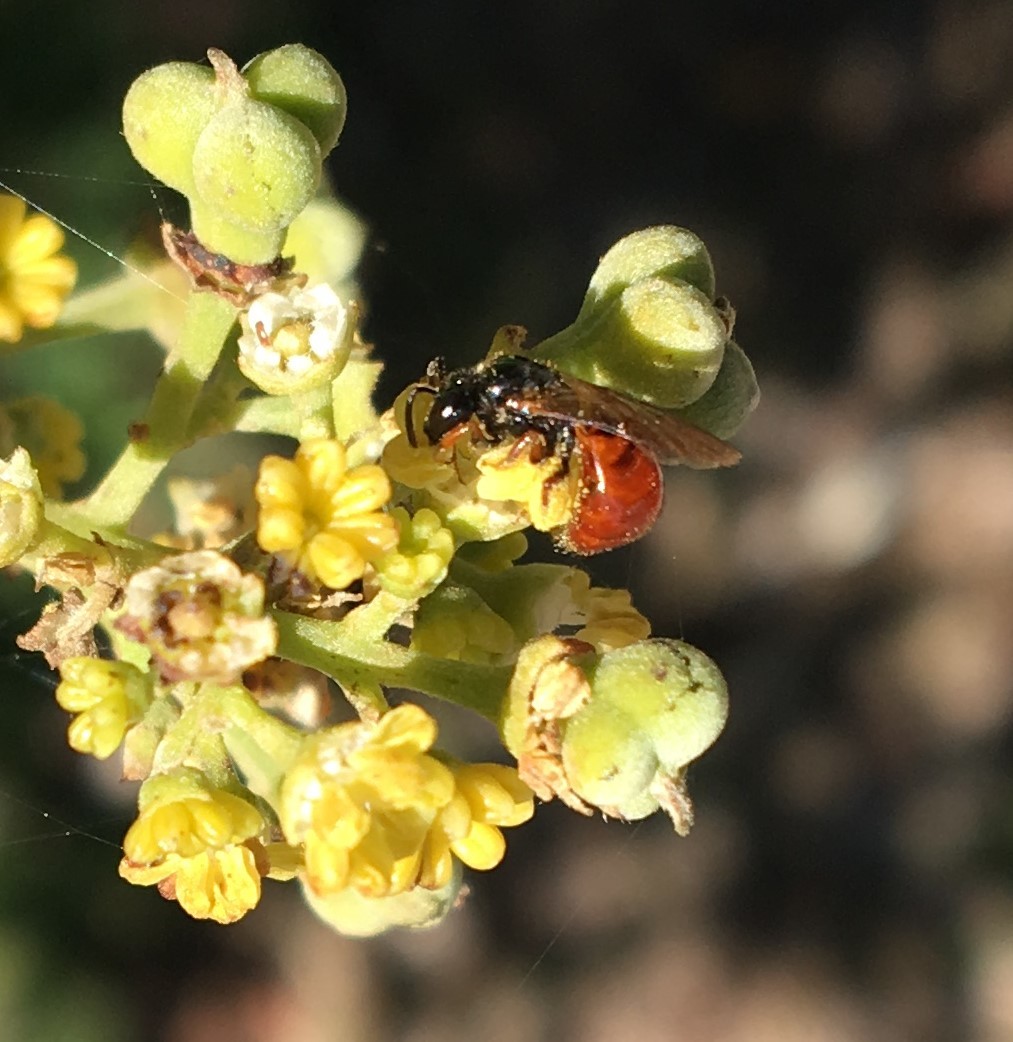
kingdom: Plantae
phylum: Tracheophyta
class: Magnoliopsida
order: Sapindales
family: Sapindaceae
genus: Alectryon
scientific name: Alectryon coriaceus
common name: Beach alectryon
